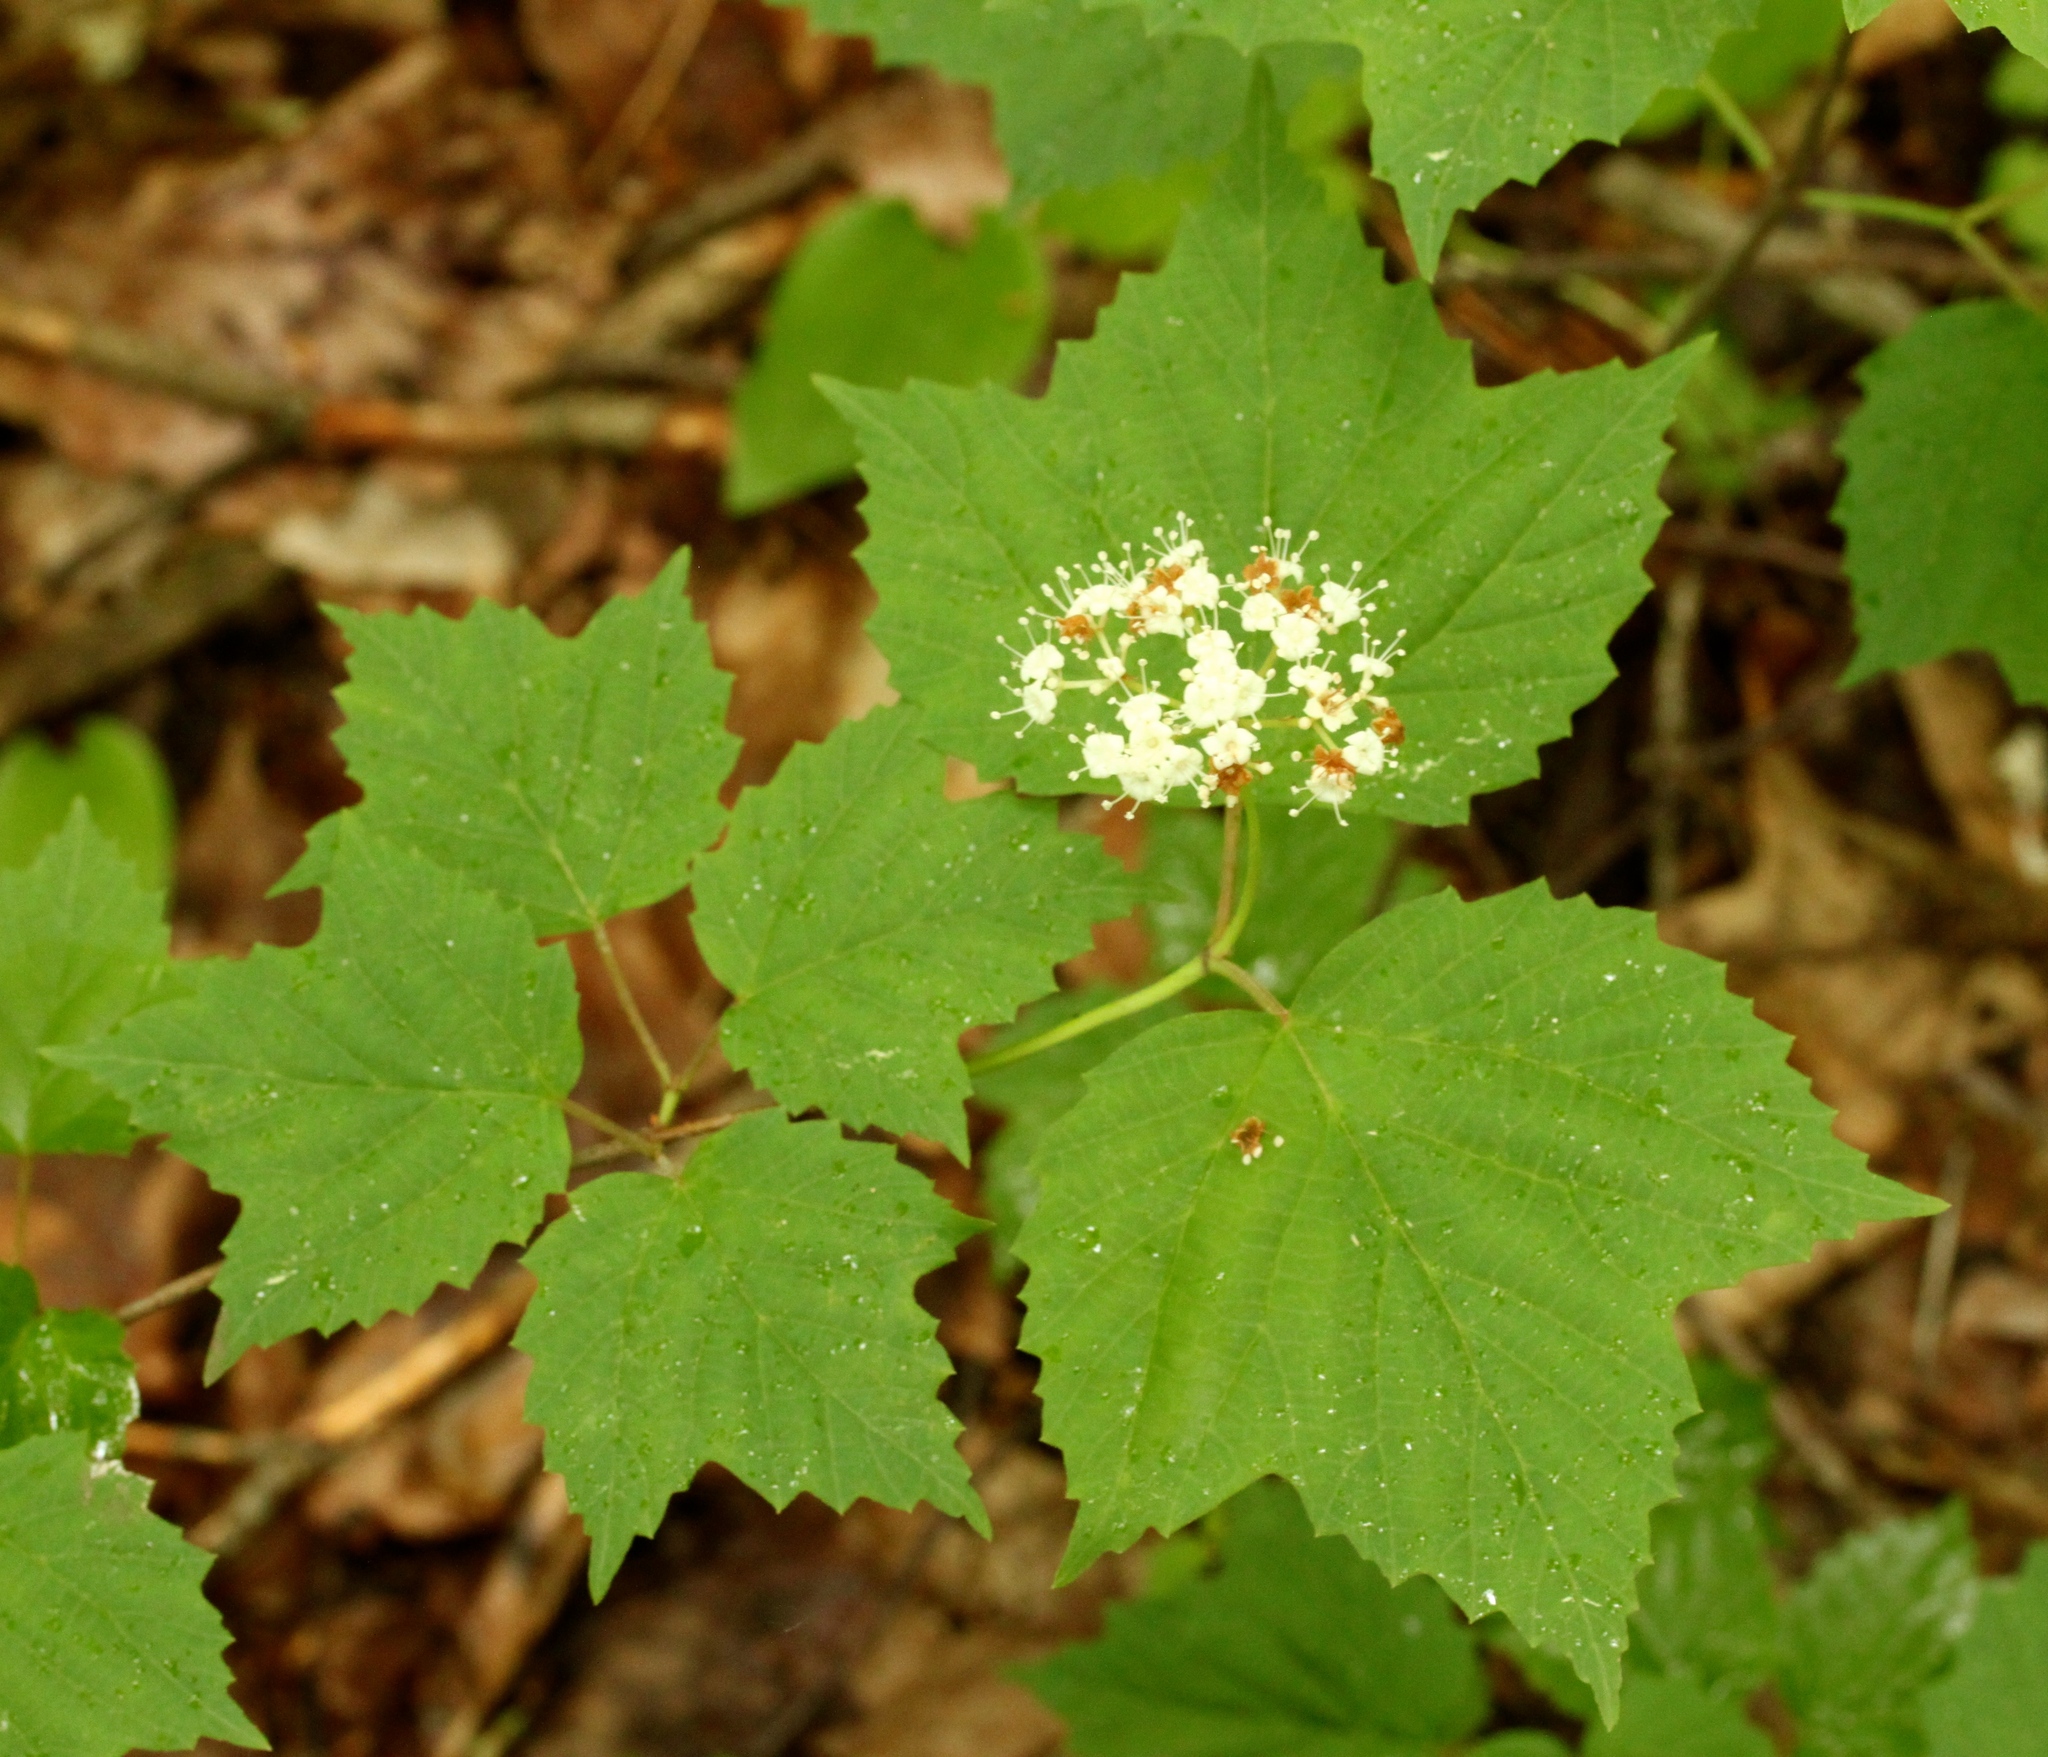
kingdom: Plantae
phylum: Tracheophyta
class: Magnoliopsida
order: Dipsacales
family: Viburnaceae
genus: Viburnum
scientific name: Viburnum acerifolium
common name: Dockmackie
